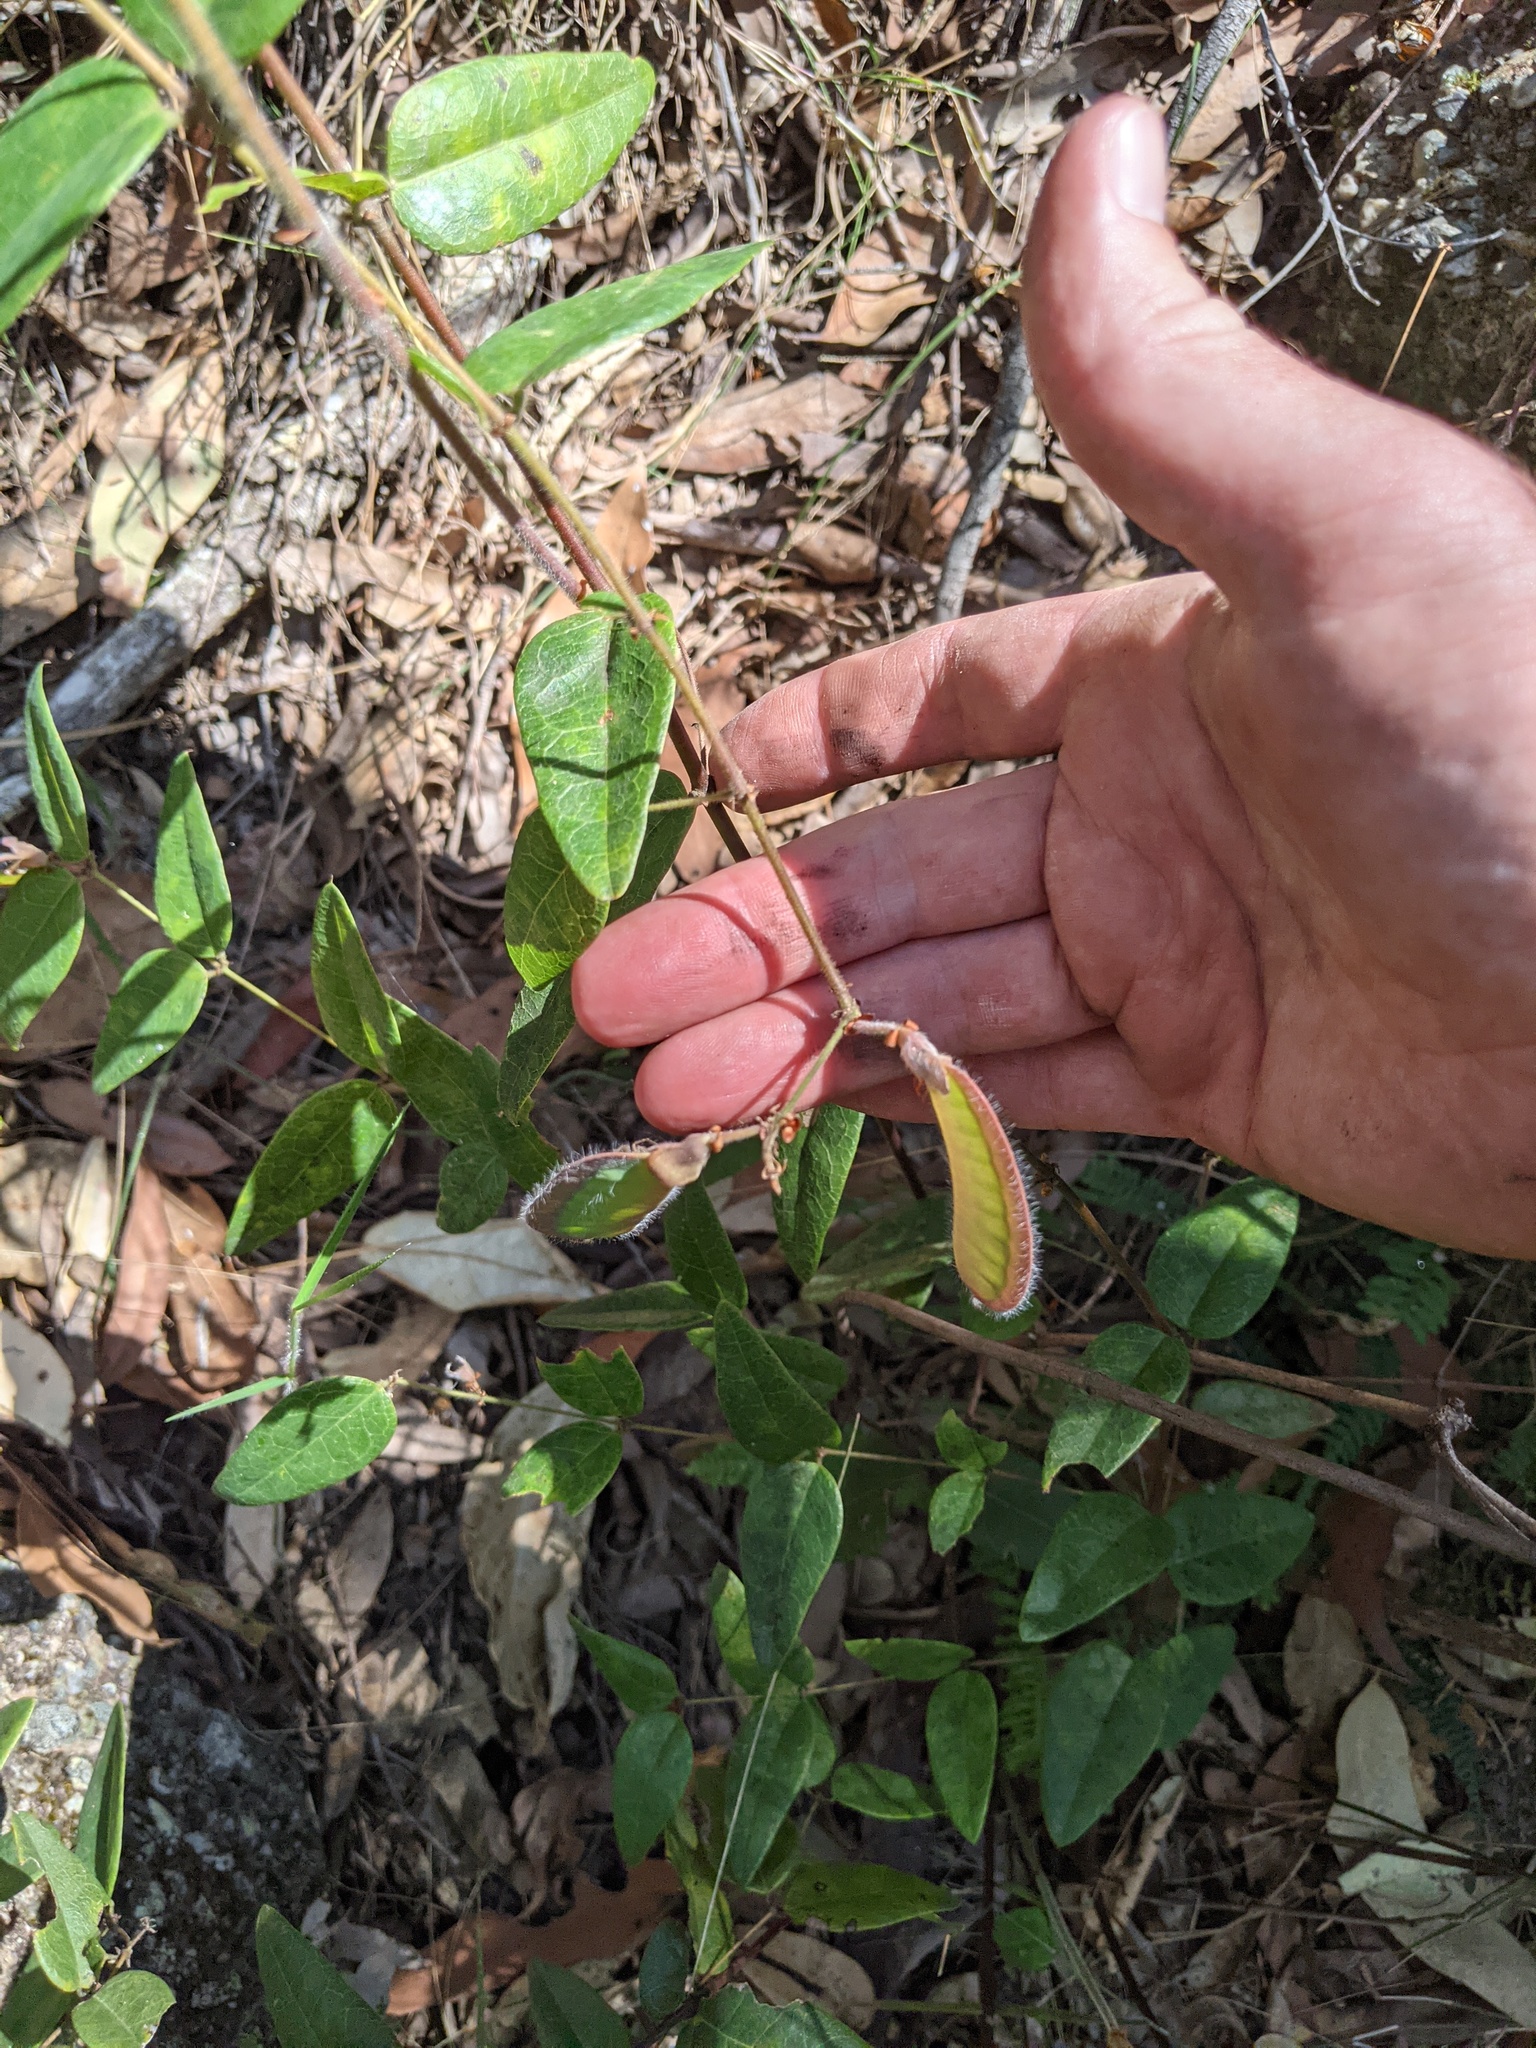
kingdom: Plantae
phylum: Tracheophyta
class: Magnoliopsida
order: Fabales
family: Fabaceae
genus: Platylobium
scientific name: Platylobium formosum
